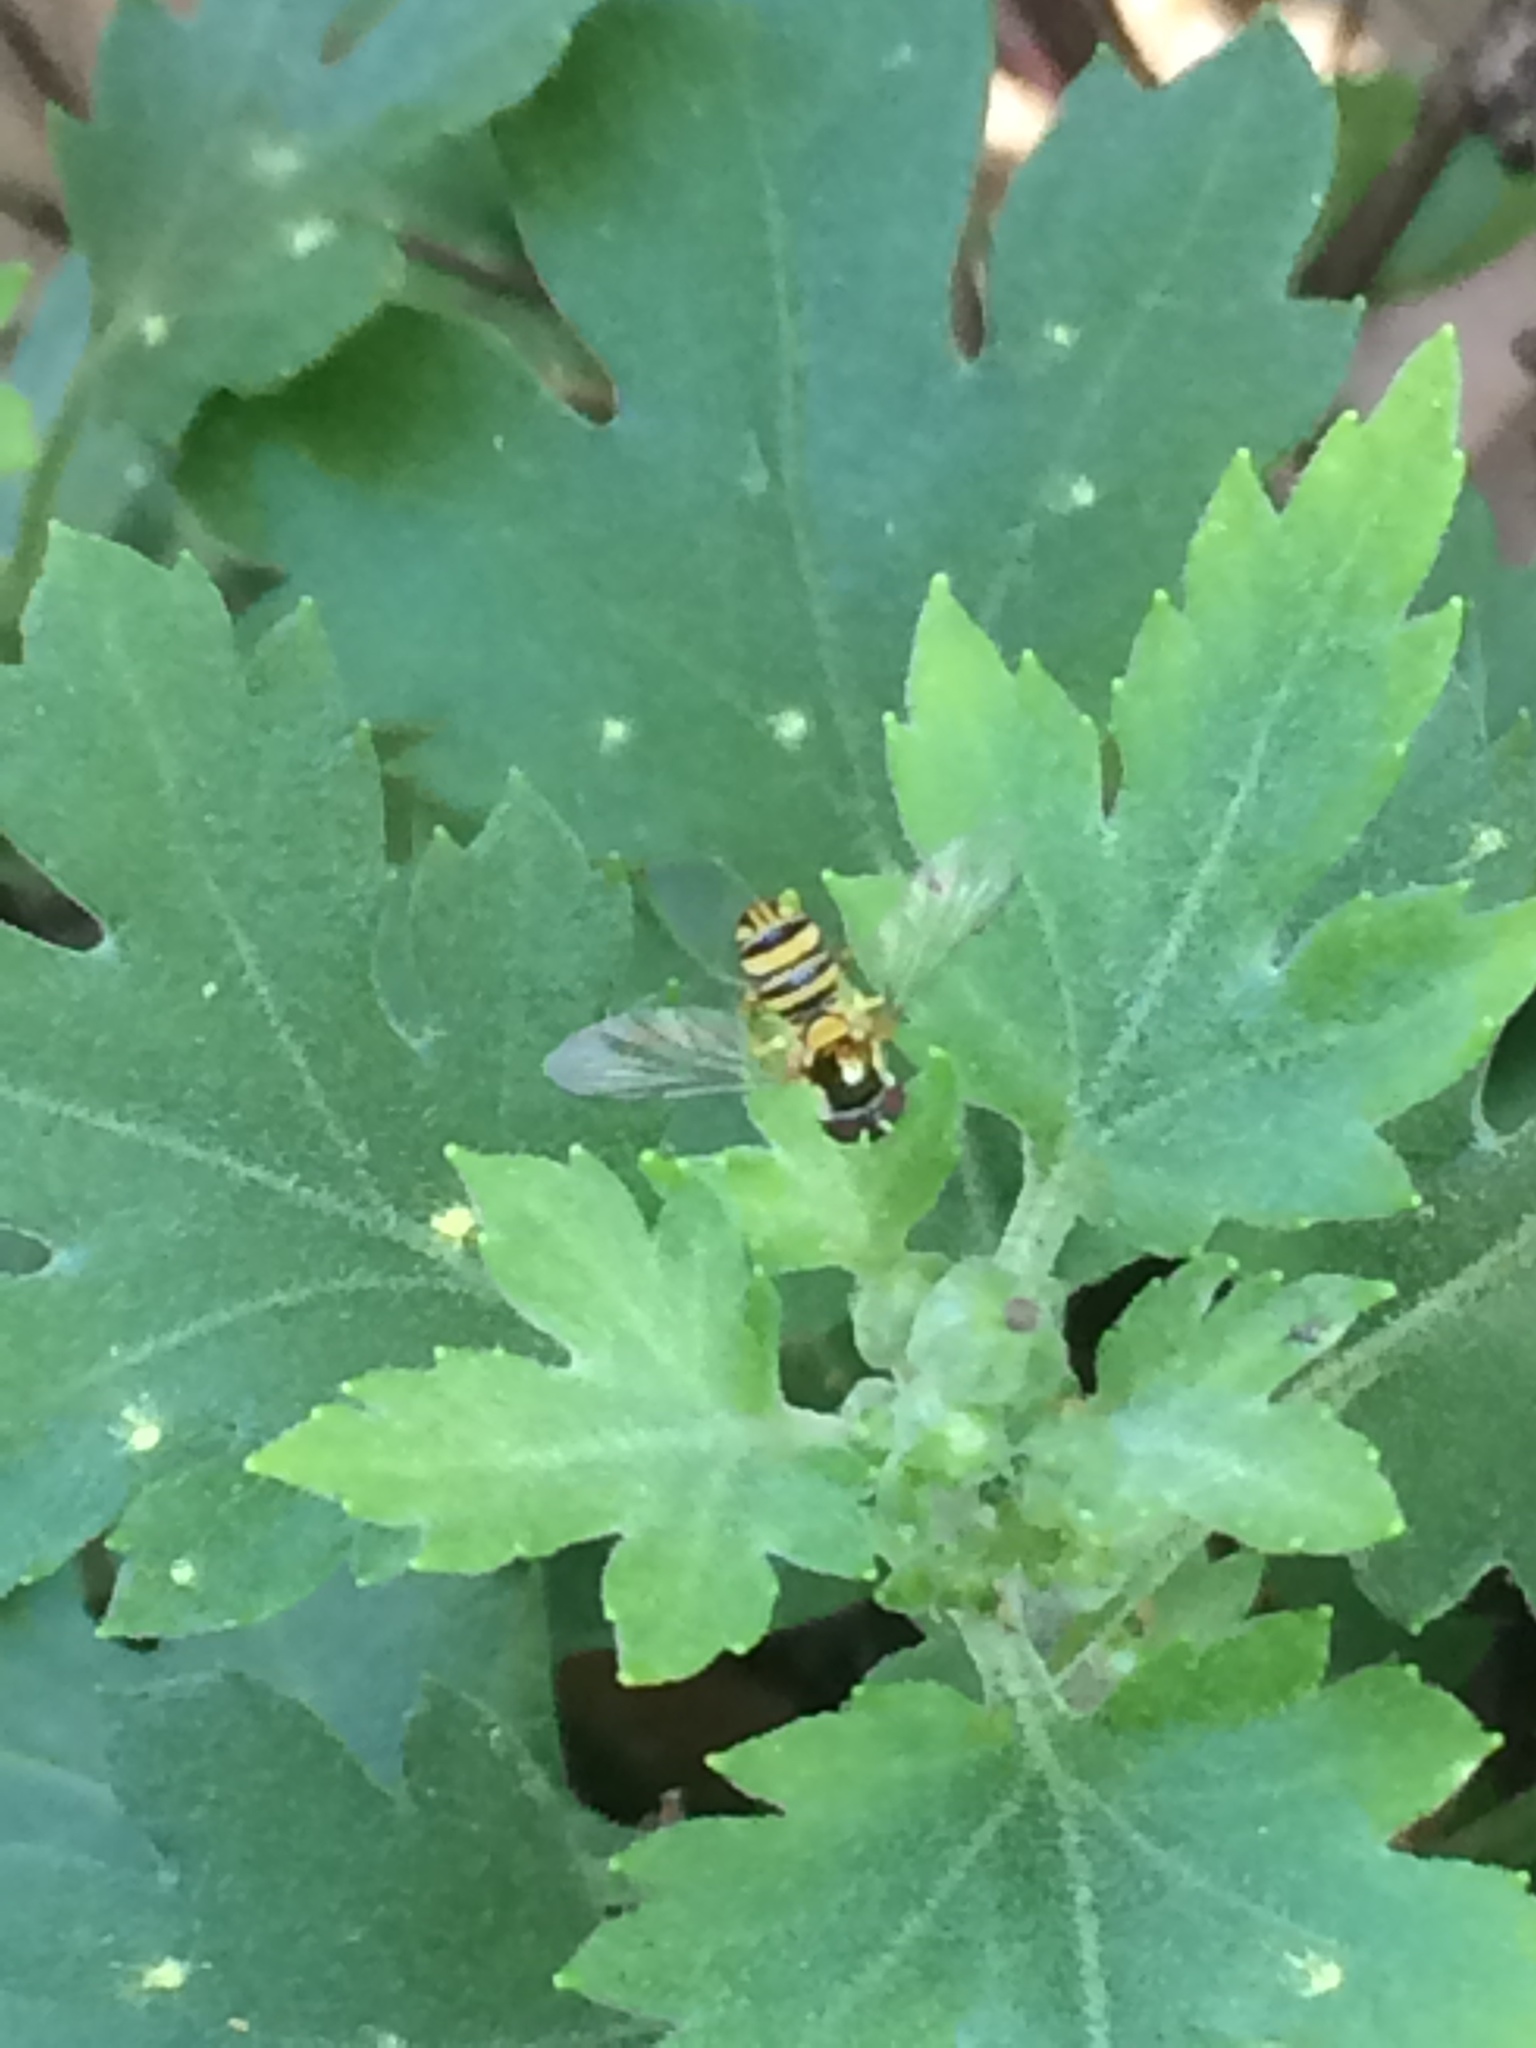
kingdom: Animalia
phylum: Arthropoda
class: Insecta
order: Diptera
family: Syrphidae
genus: Allograpta
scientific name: Allograpta obliqua
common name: Common oblique syrphid
